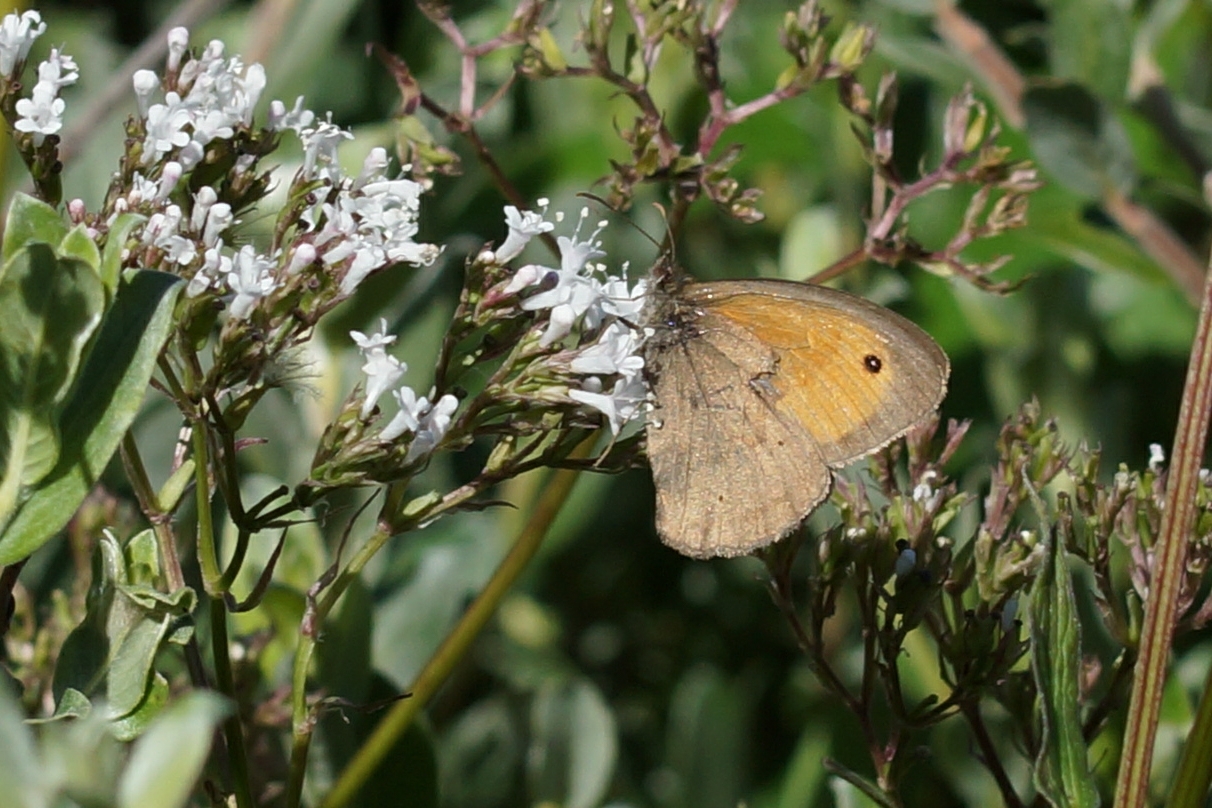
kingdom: Animalia
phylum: Arthropoda
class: Insecta
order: Lepidoptera
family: Nymphalidae
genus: Maniola
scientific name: Maniola jurtina
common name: Meadow brown
